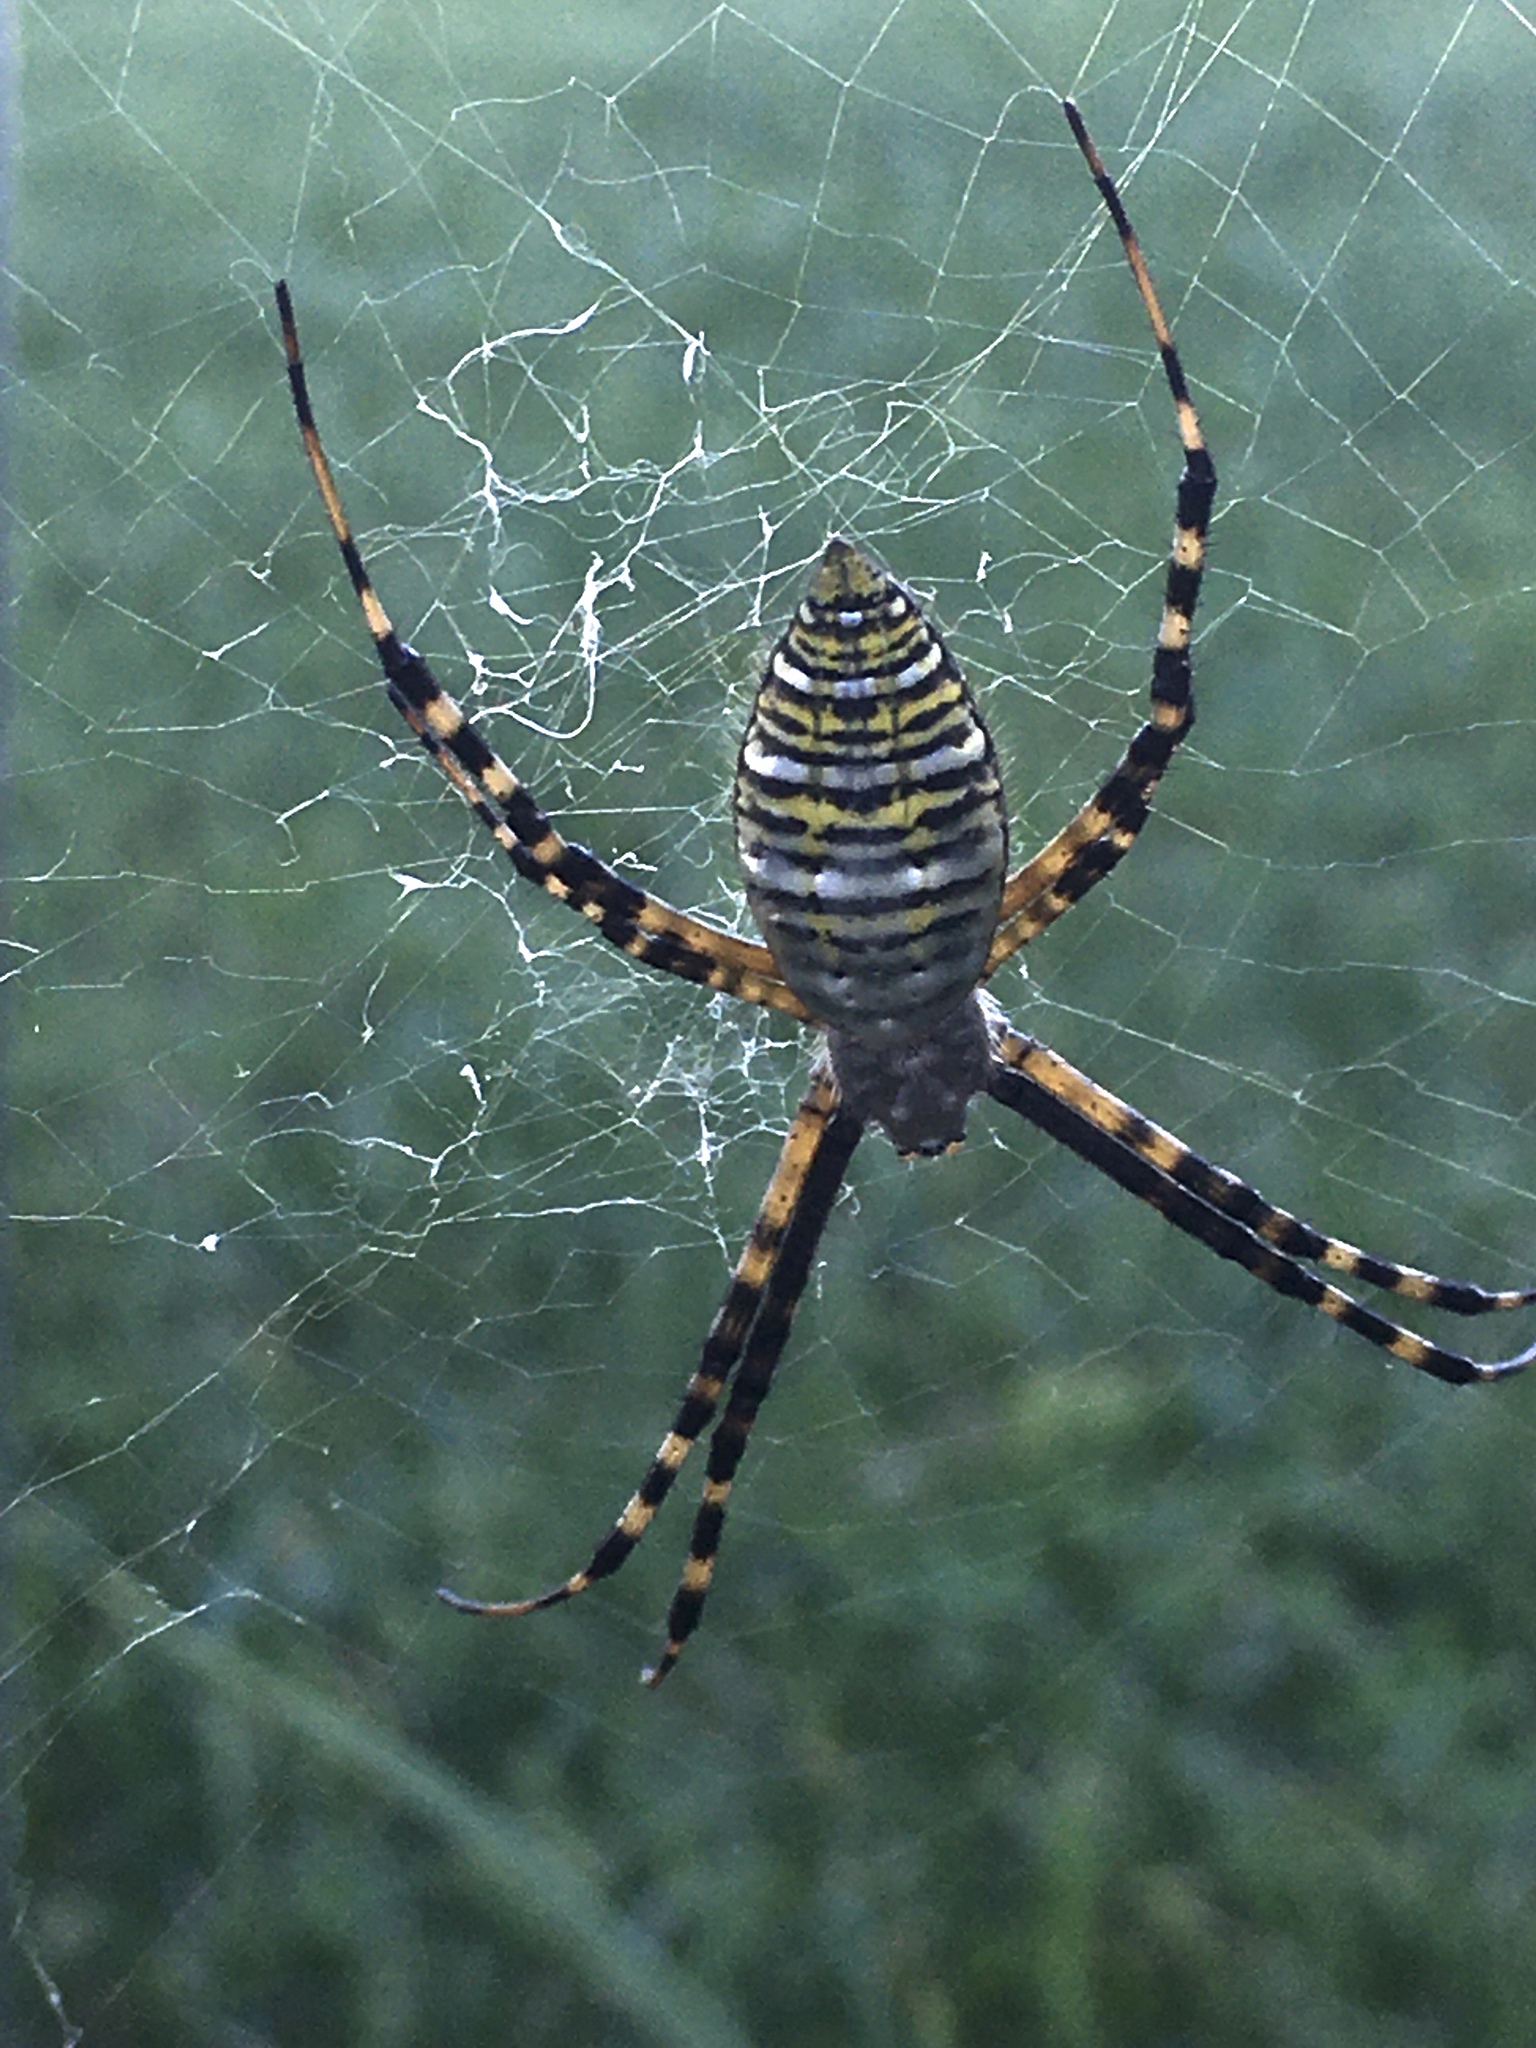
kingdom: Animalia
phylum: Arthropoda
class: Arachnida
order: Araneae
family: Araneidae
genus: Argiope
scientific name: Argiope trifasciata
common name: Banded garden spider
